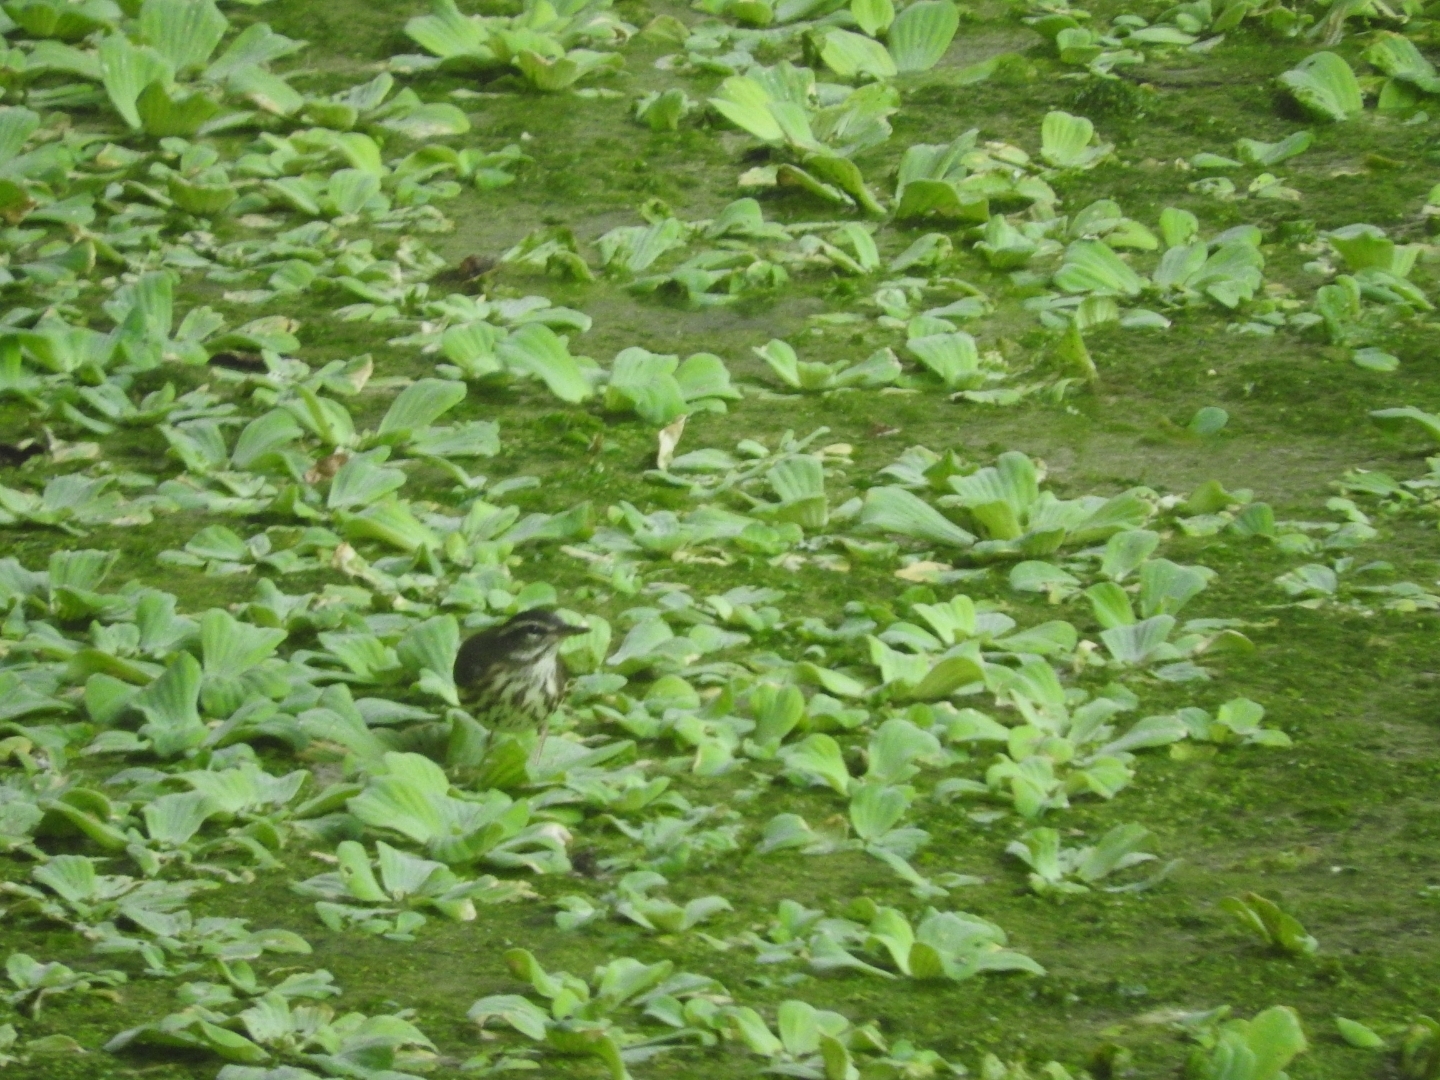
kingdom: Animalia
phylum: Chordata
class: Aves
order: Passeriformes
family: Parulidae
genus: Parkesia
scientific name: Parkesia noveboracensis
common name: Northern waterthrush
